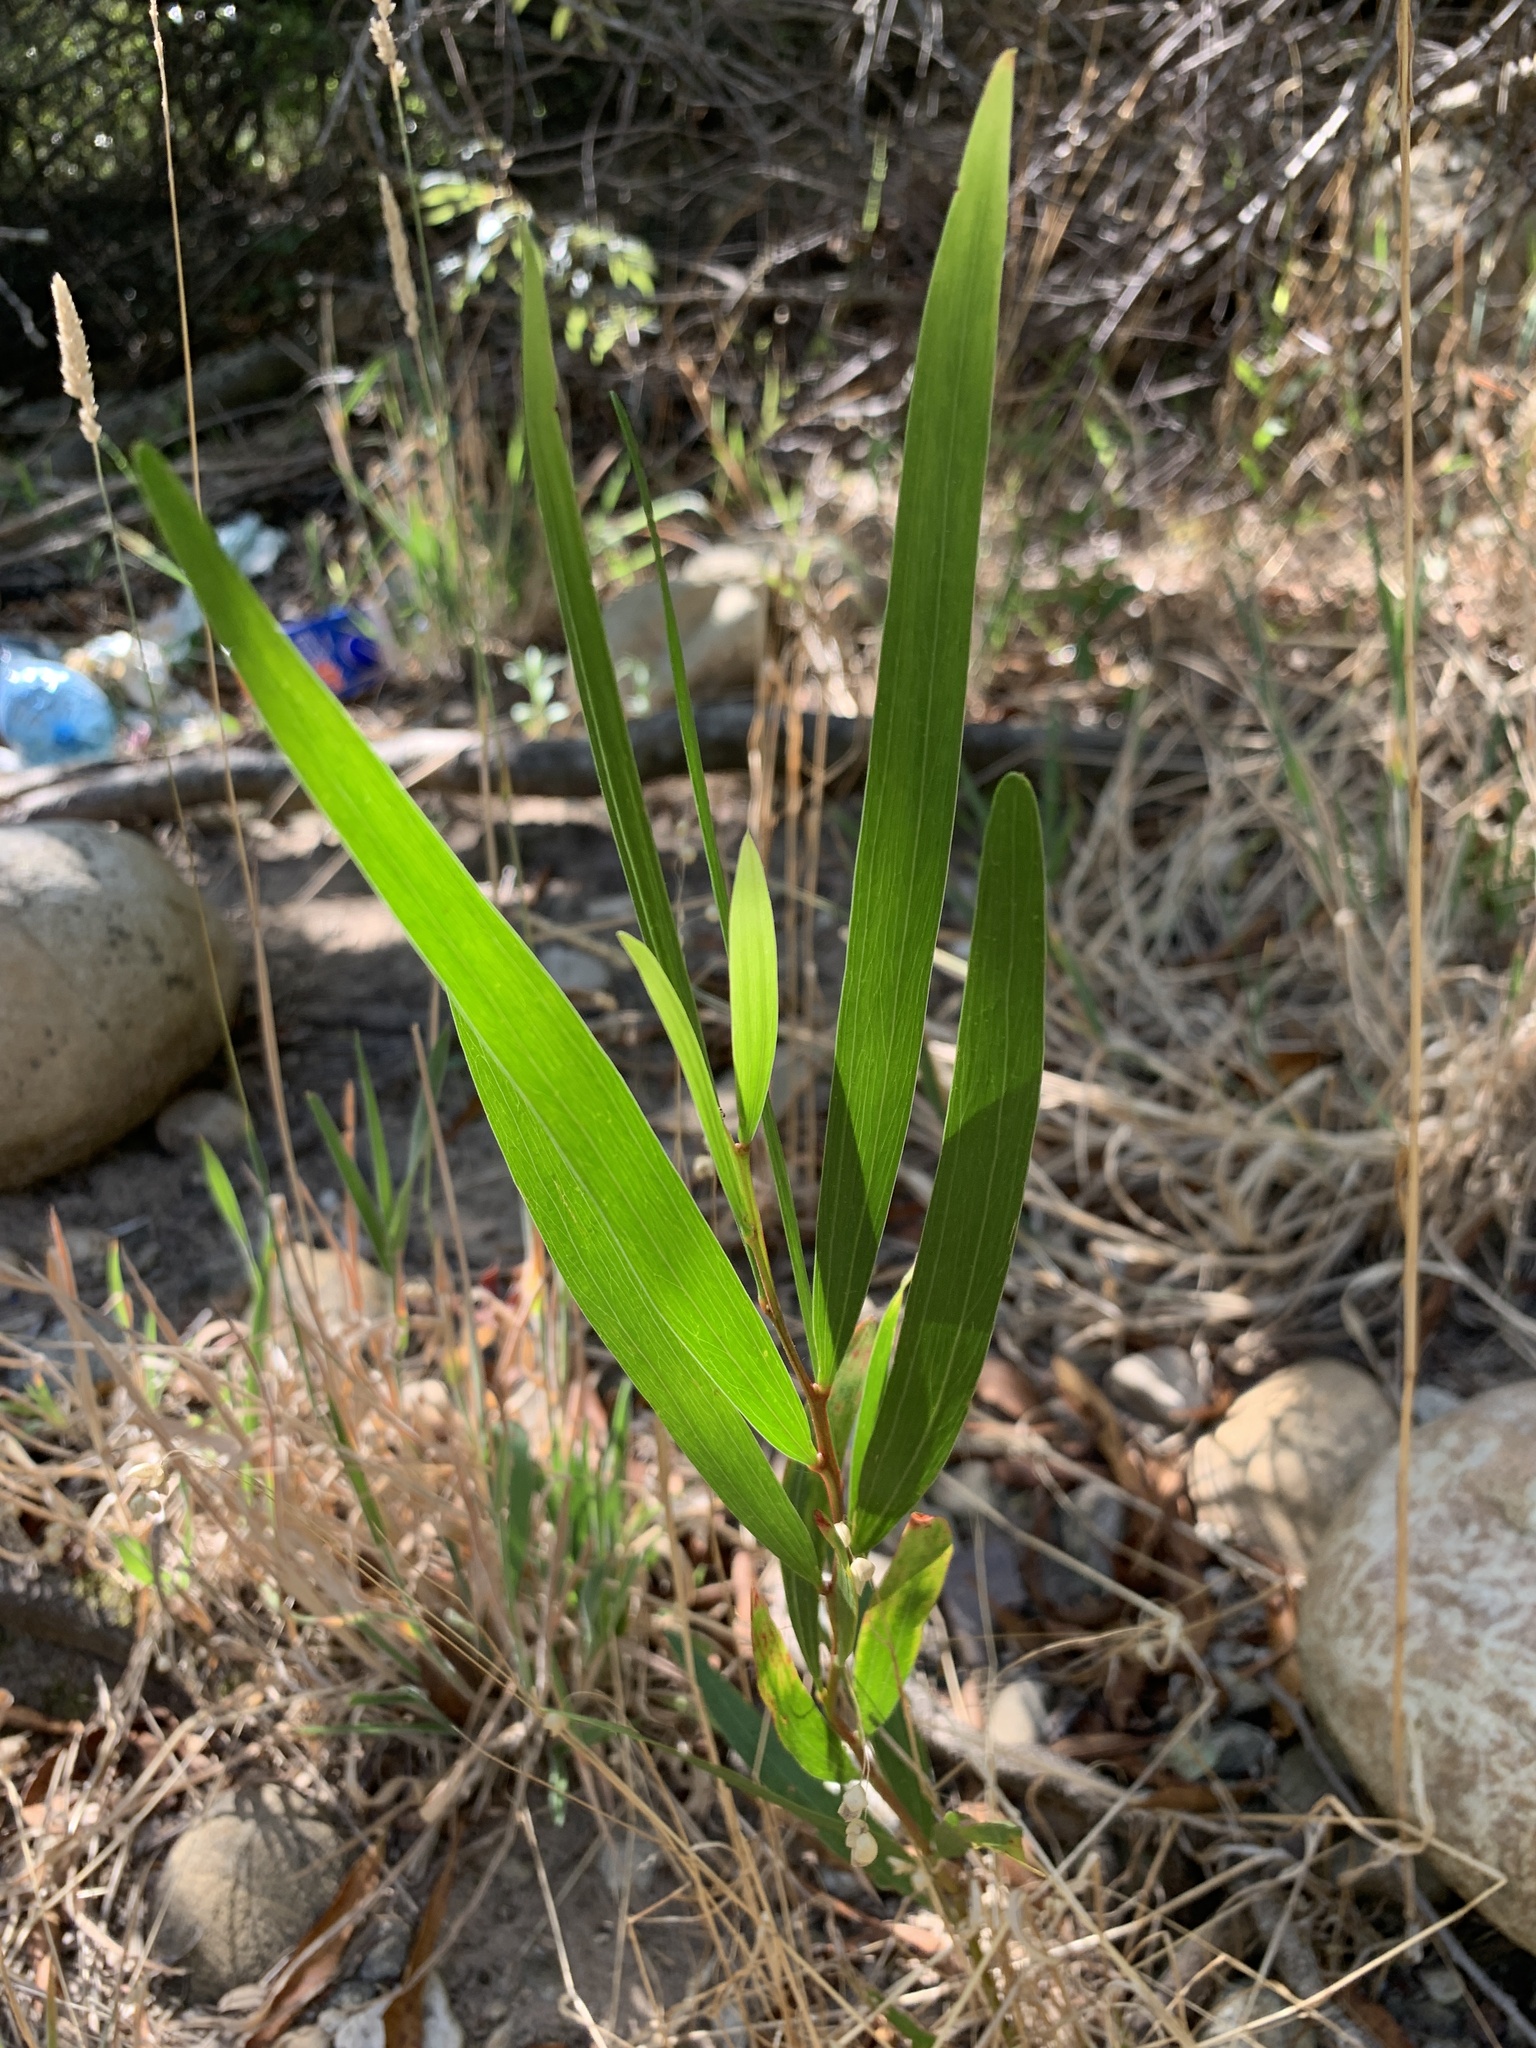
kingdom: Plantae
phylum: Tracheophyta
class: Magnoliopsida
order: Fabales
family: Fabaceae
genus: Acacia
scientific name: Acacia longifolia
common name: Sydney golden wattle
